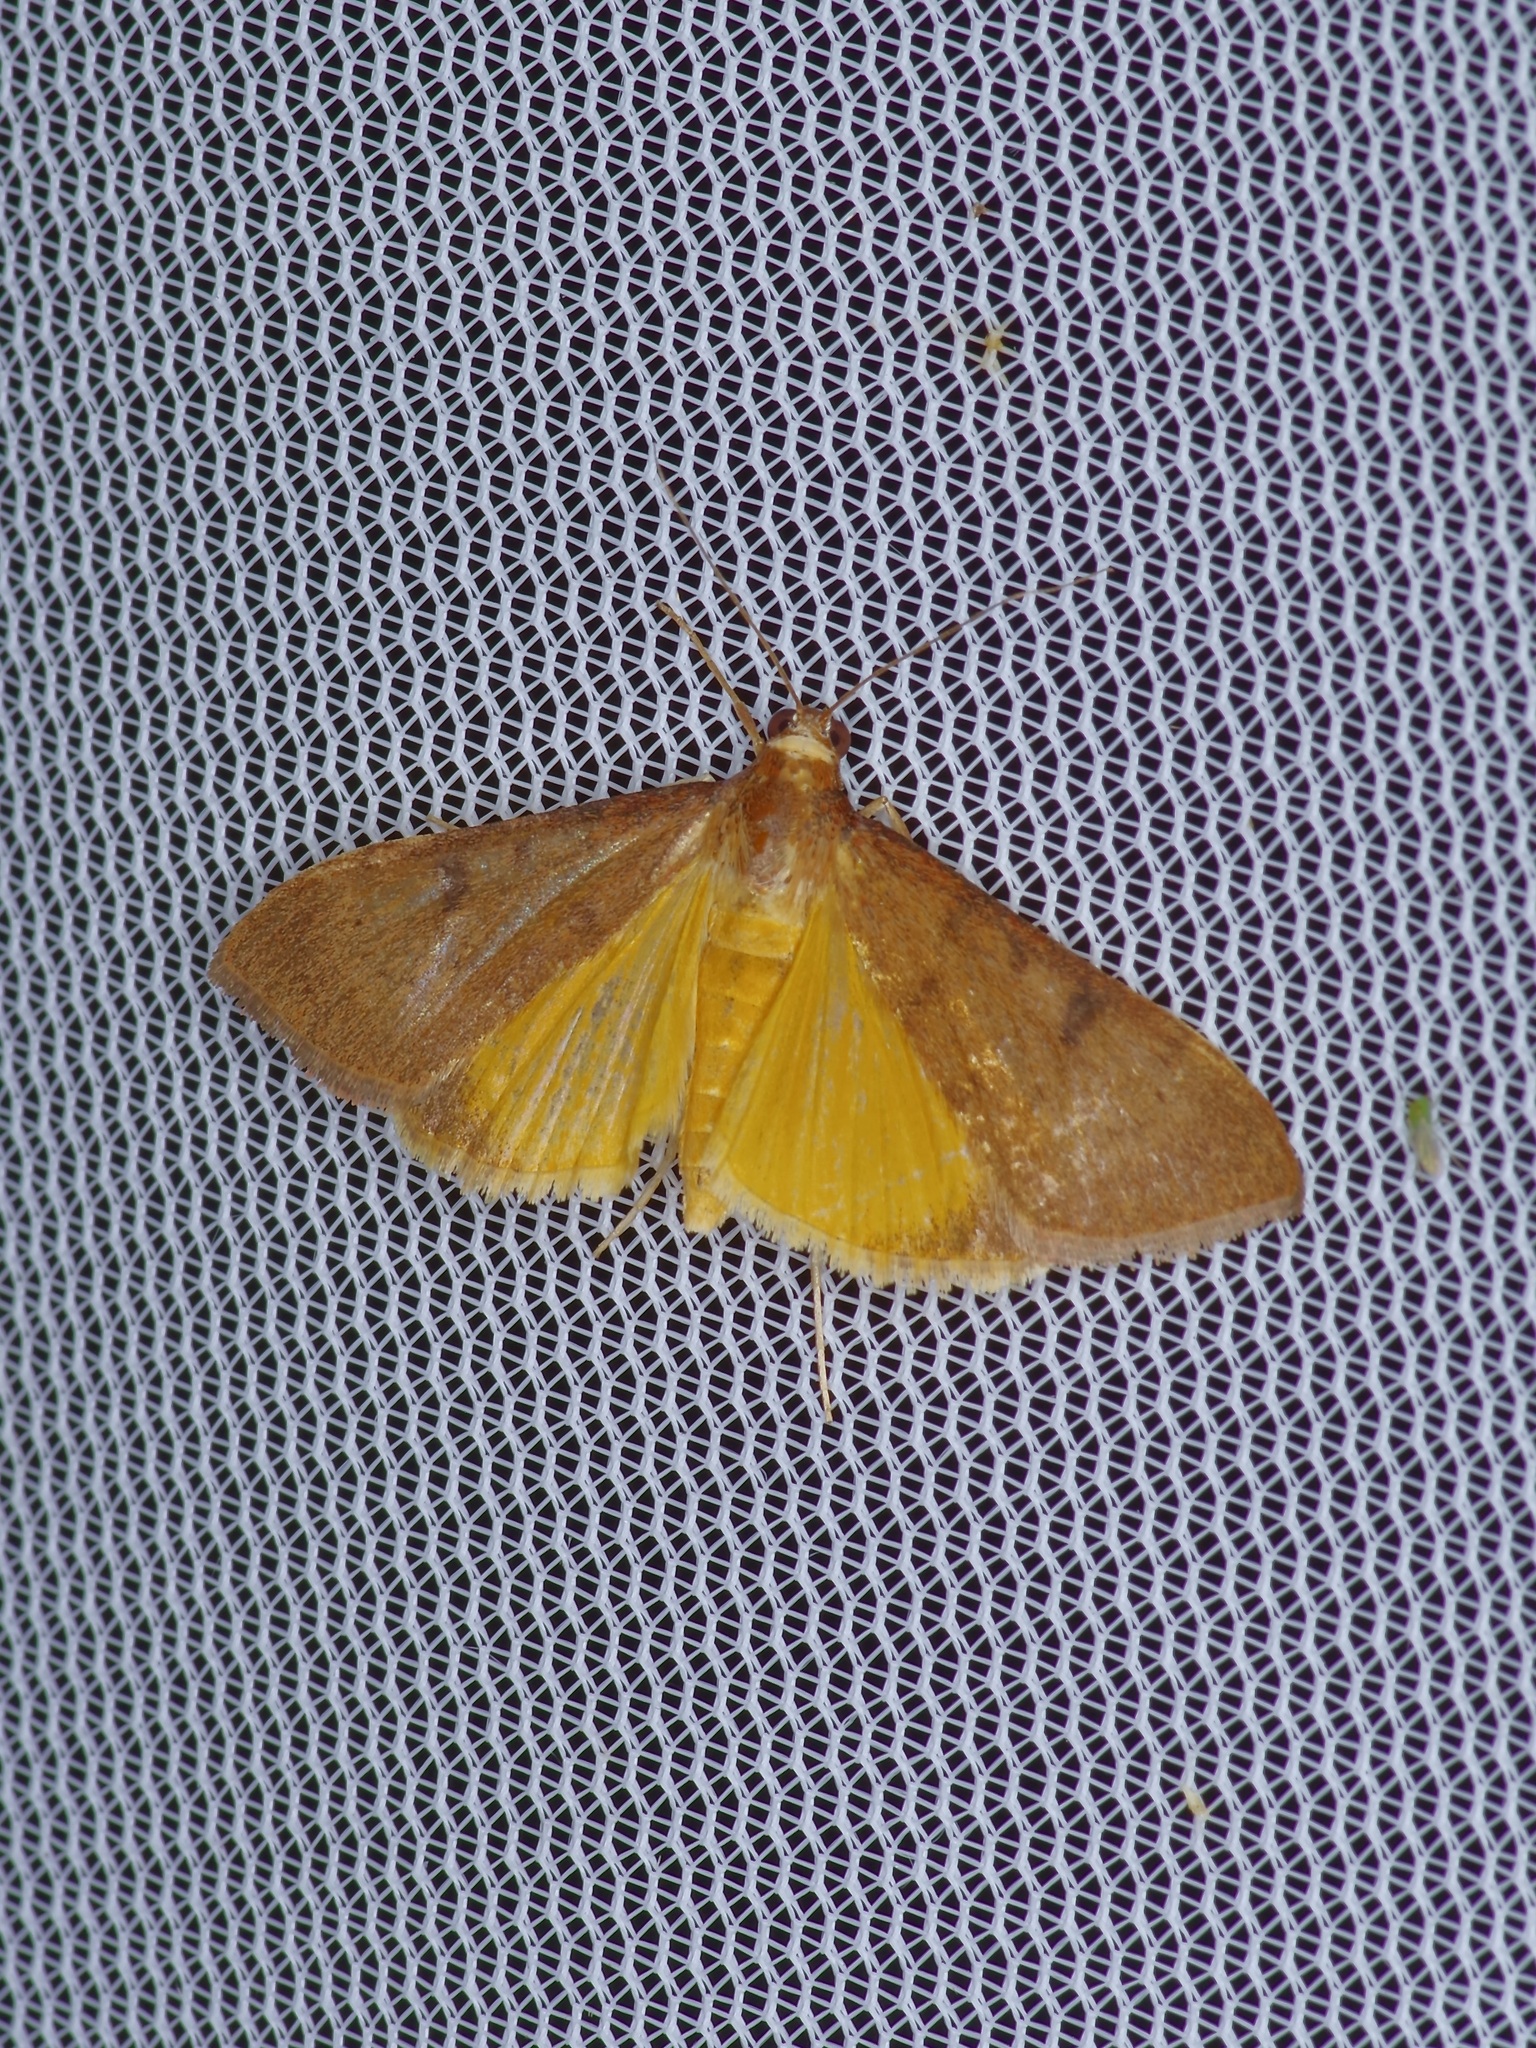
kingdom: Animalia
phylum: Arthropoda
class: Insecta
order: Lepidoptera
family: Crambidae
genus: Uresiphita
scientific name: Uresiphita reversalis
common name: Genista broom moth
